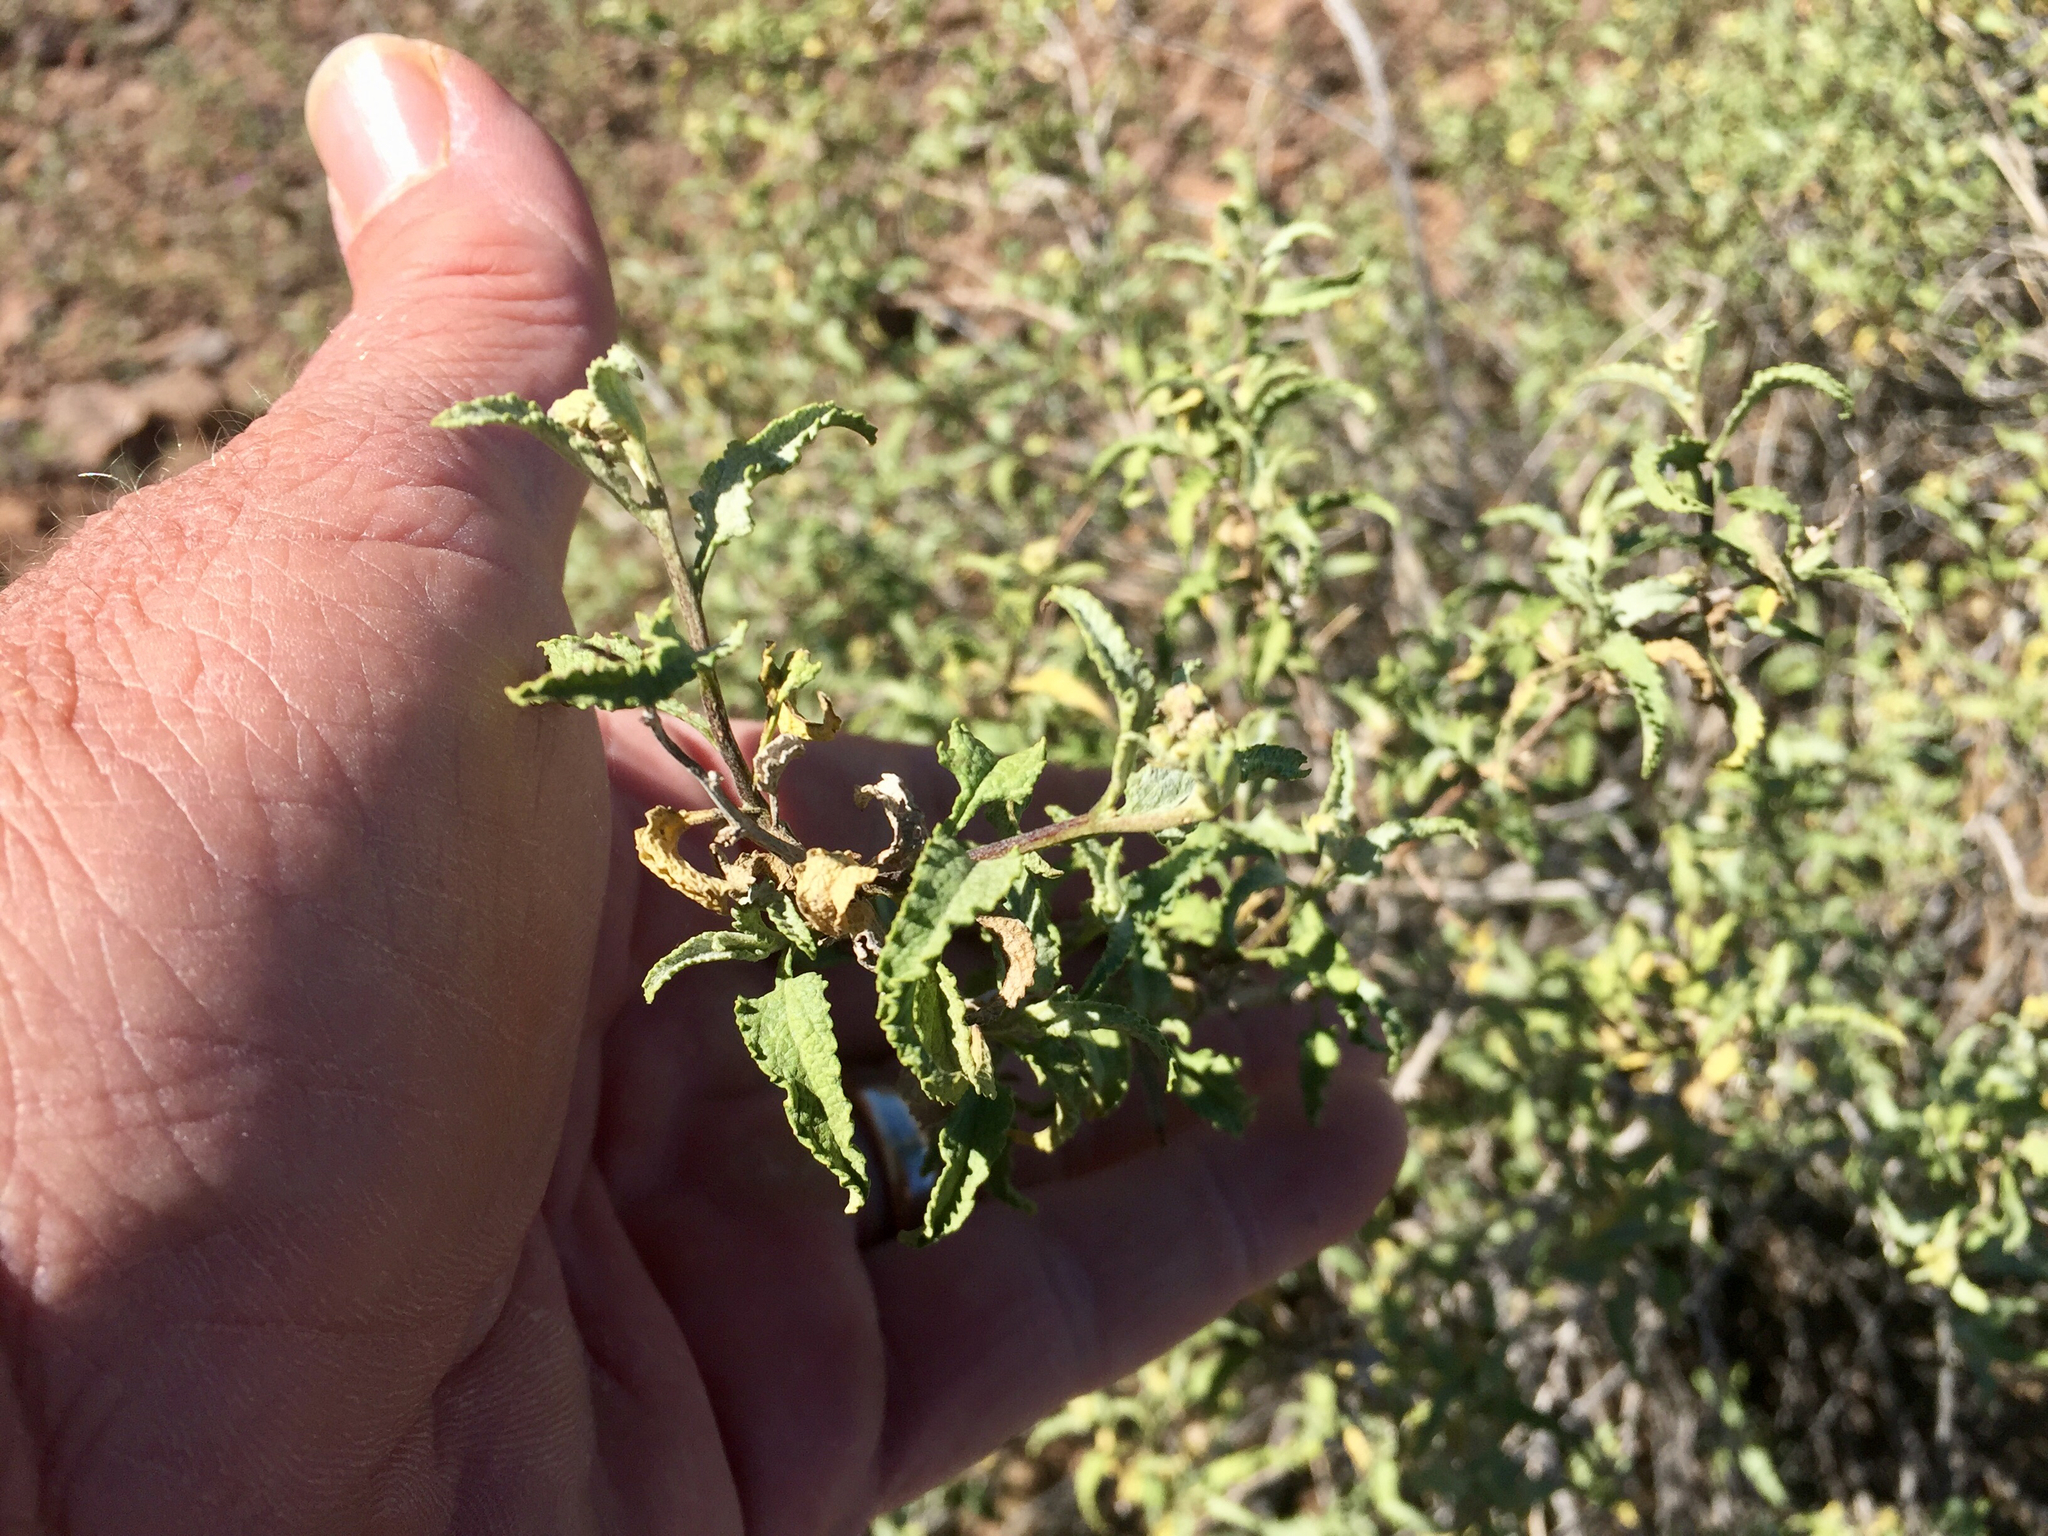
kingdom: Plantae
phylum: Tracheophyta
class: Magnoliopsida
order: Asterales
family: Asteraceae
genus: Ambrosia
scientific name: Ambrosia deltoidea
